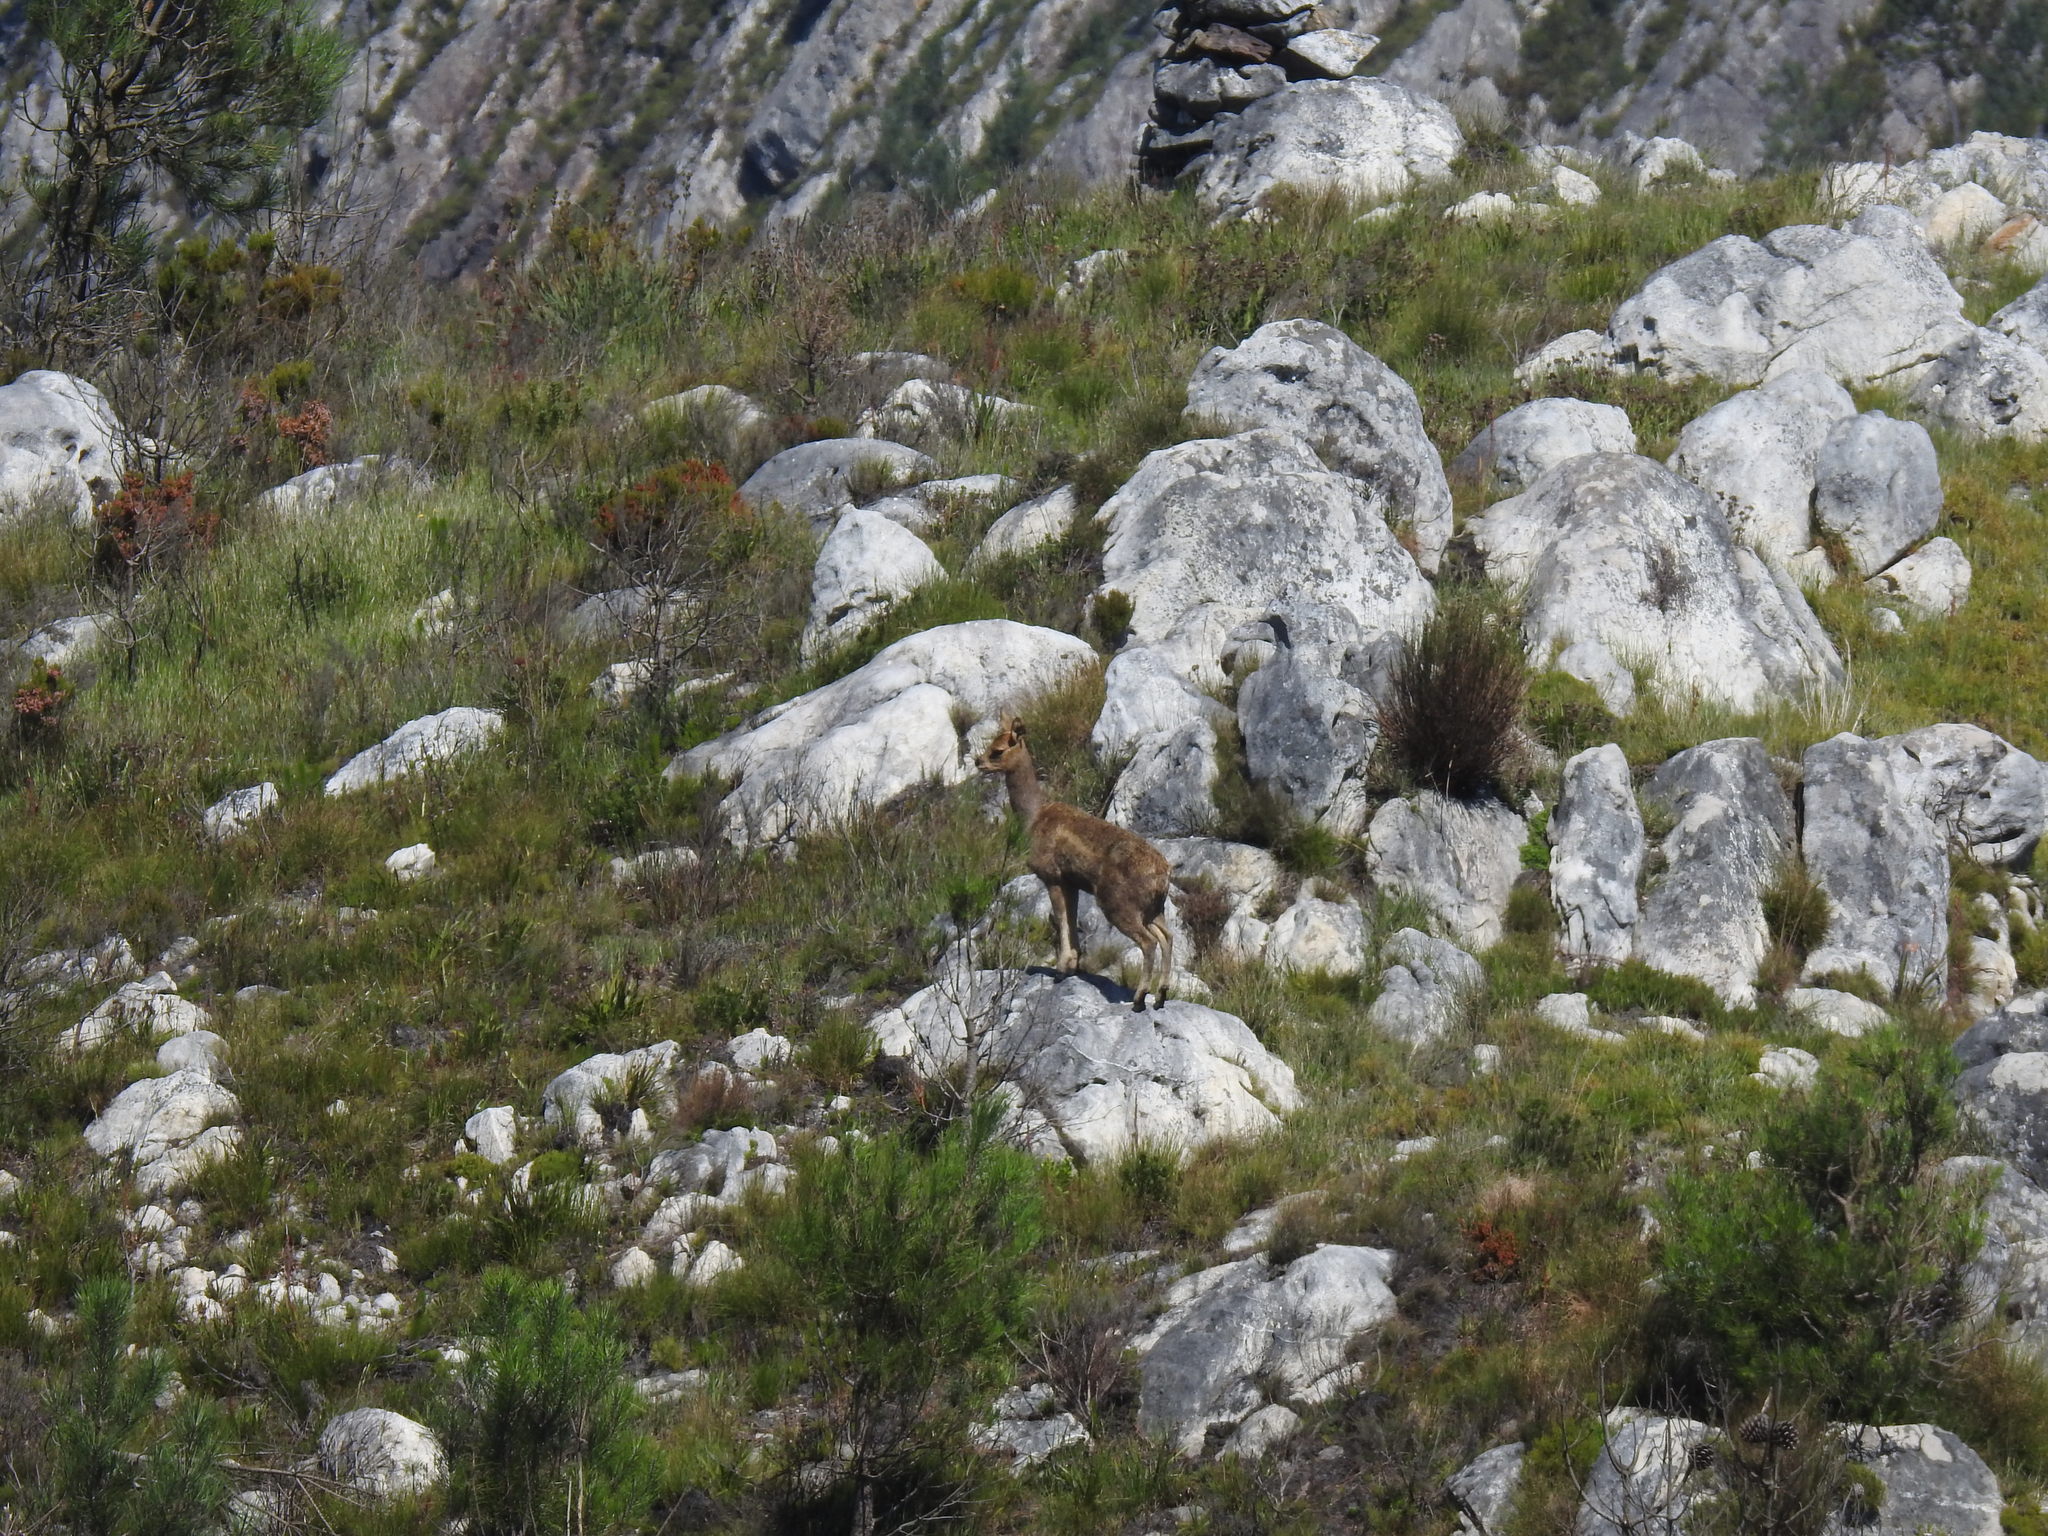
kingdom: Animalia
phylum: Chordata
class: Mammalia
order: Artiodactyla
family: Bovidae
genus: Oreotragus
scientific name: Oreotragus oreotragus
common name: Klipspringer
